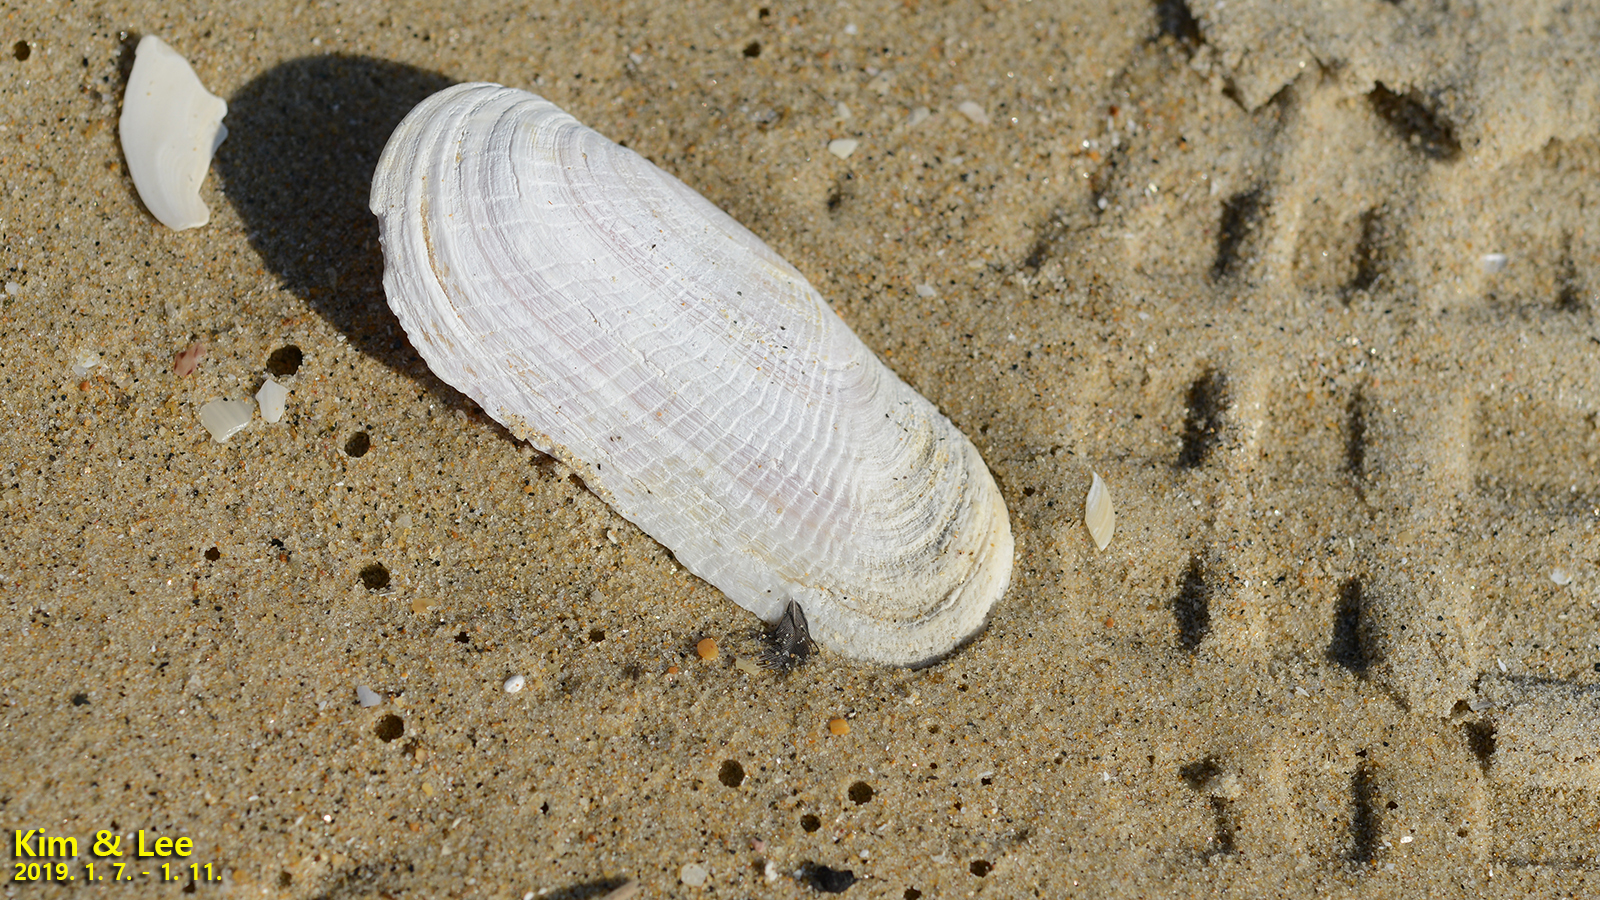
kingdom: Animalia
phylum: Mollusca
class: Bivalvia
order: Cardiida
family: Solecurtidae
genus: Solecurtus
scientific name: Solecurtus divaricatus
